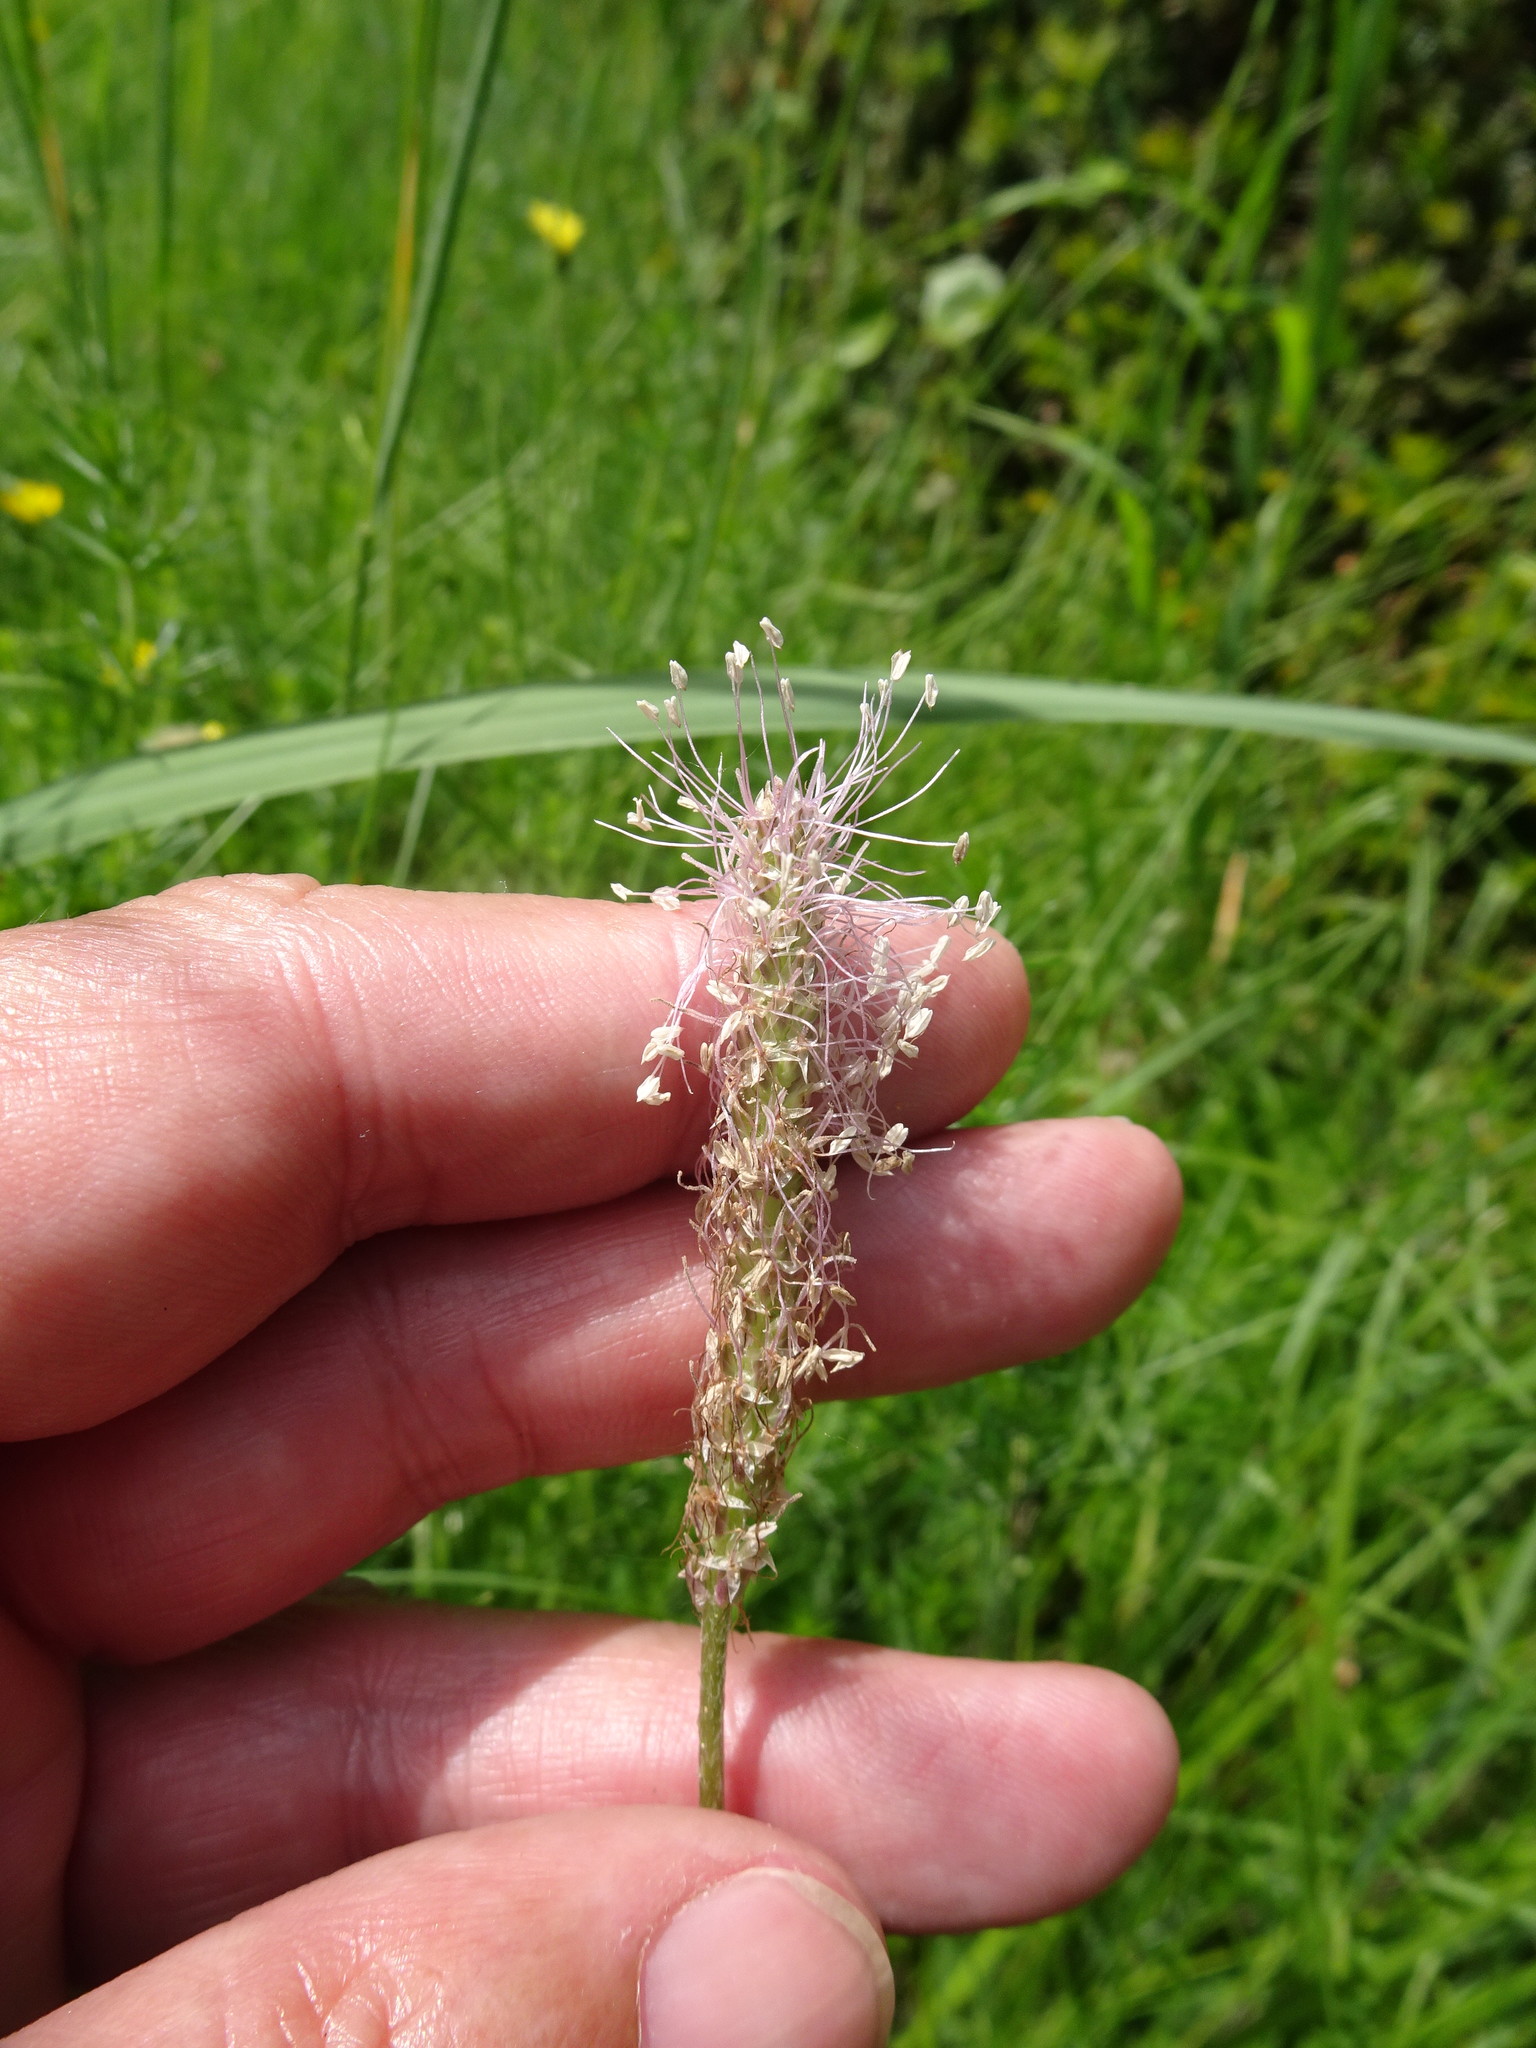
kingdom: Plantae
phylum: Tracheophyta
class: Magnoliopsida
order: Lamiales
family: Plantaginaceae
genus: Plantago
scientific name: Plantago media
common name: Hoary plantain
